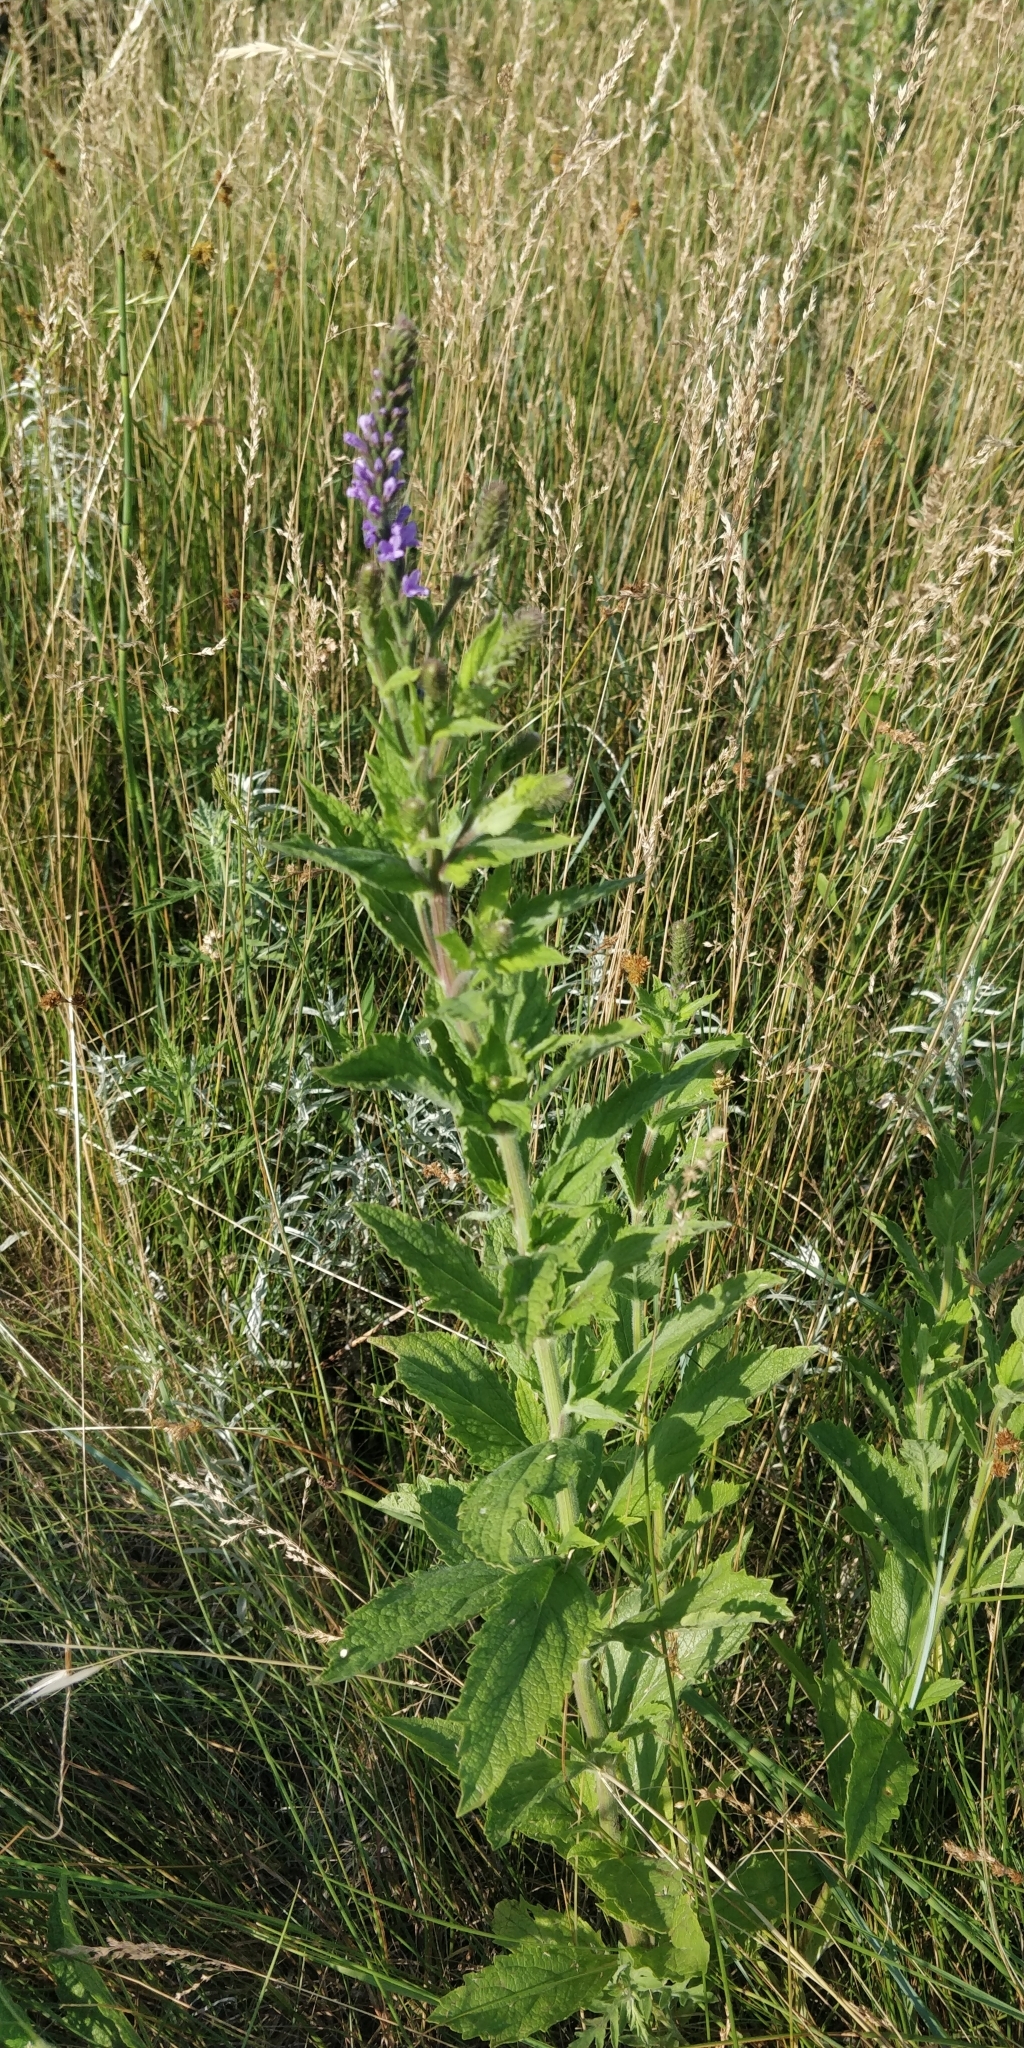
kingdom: Plantae
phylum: Tracheophyta
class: Magnoliopsida
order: Lamiales
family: Verbenaceae
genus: Verbena
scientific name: Verbena stricta
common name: Hoary vervain
